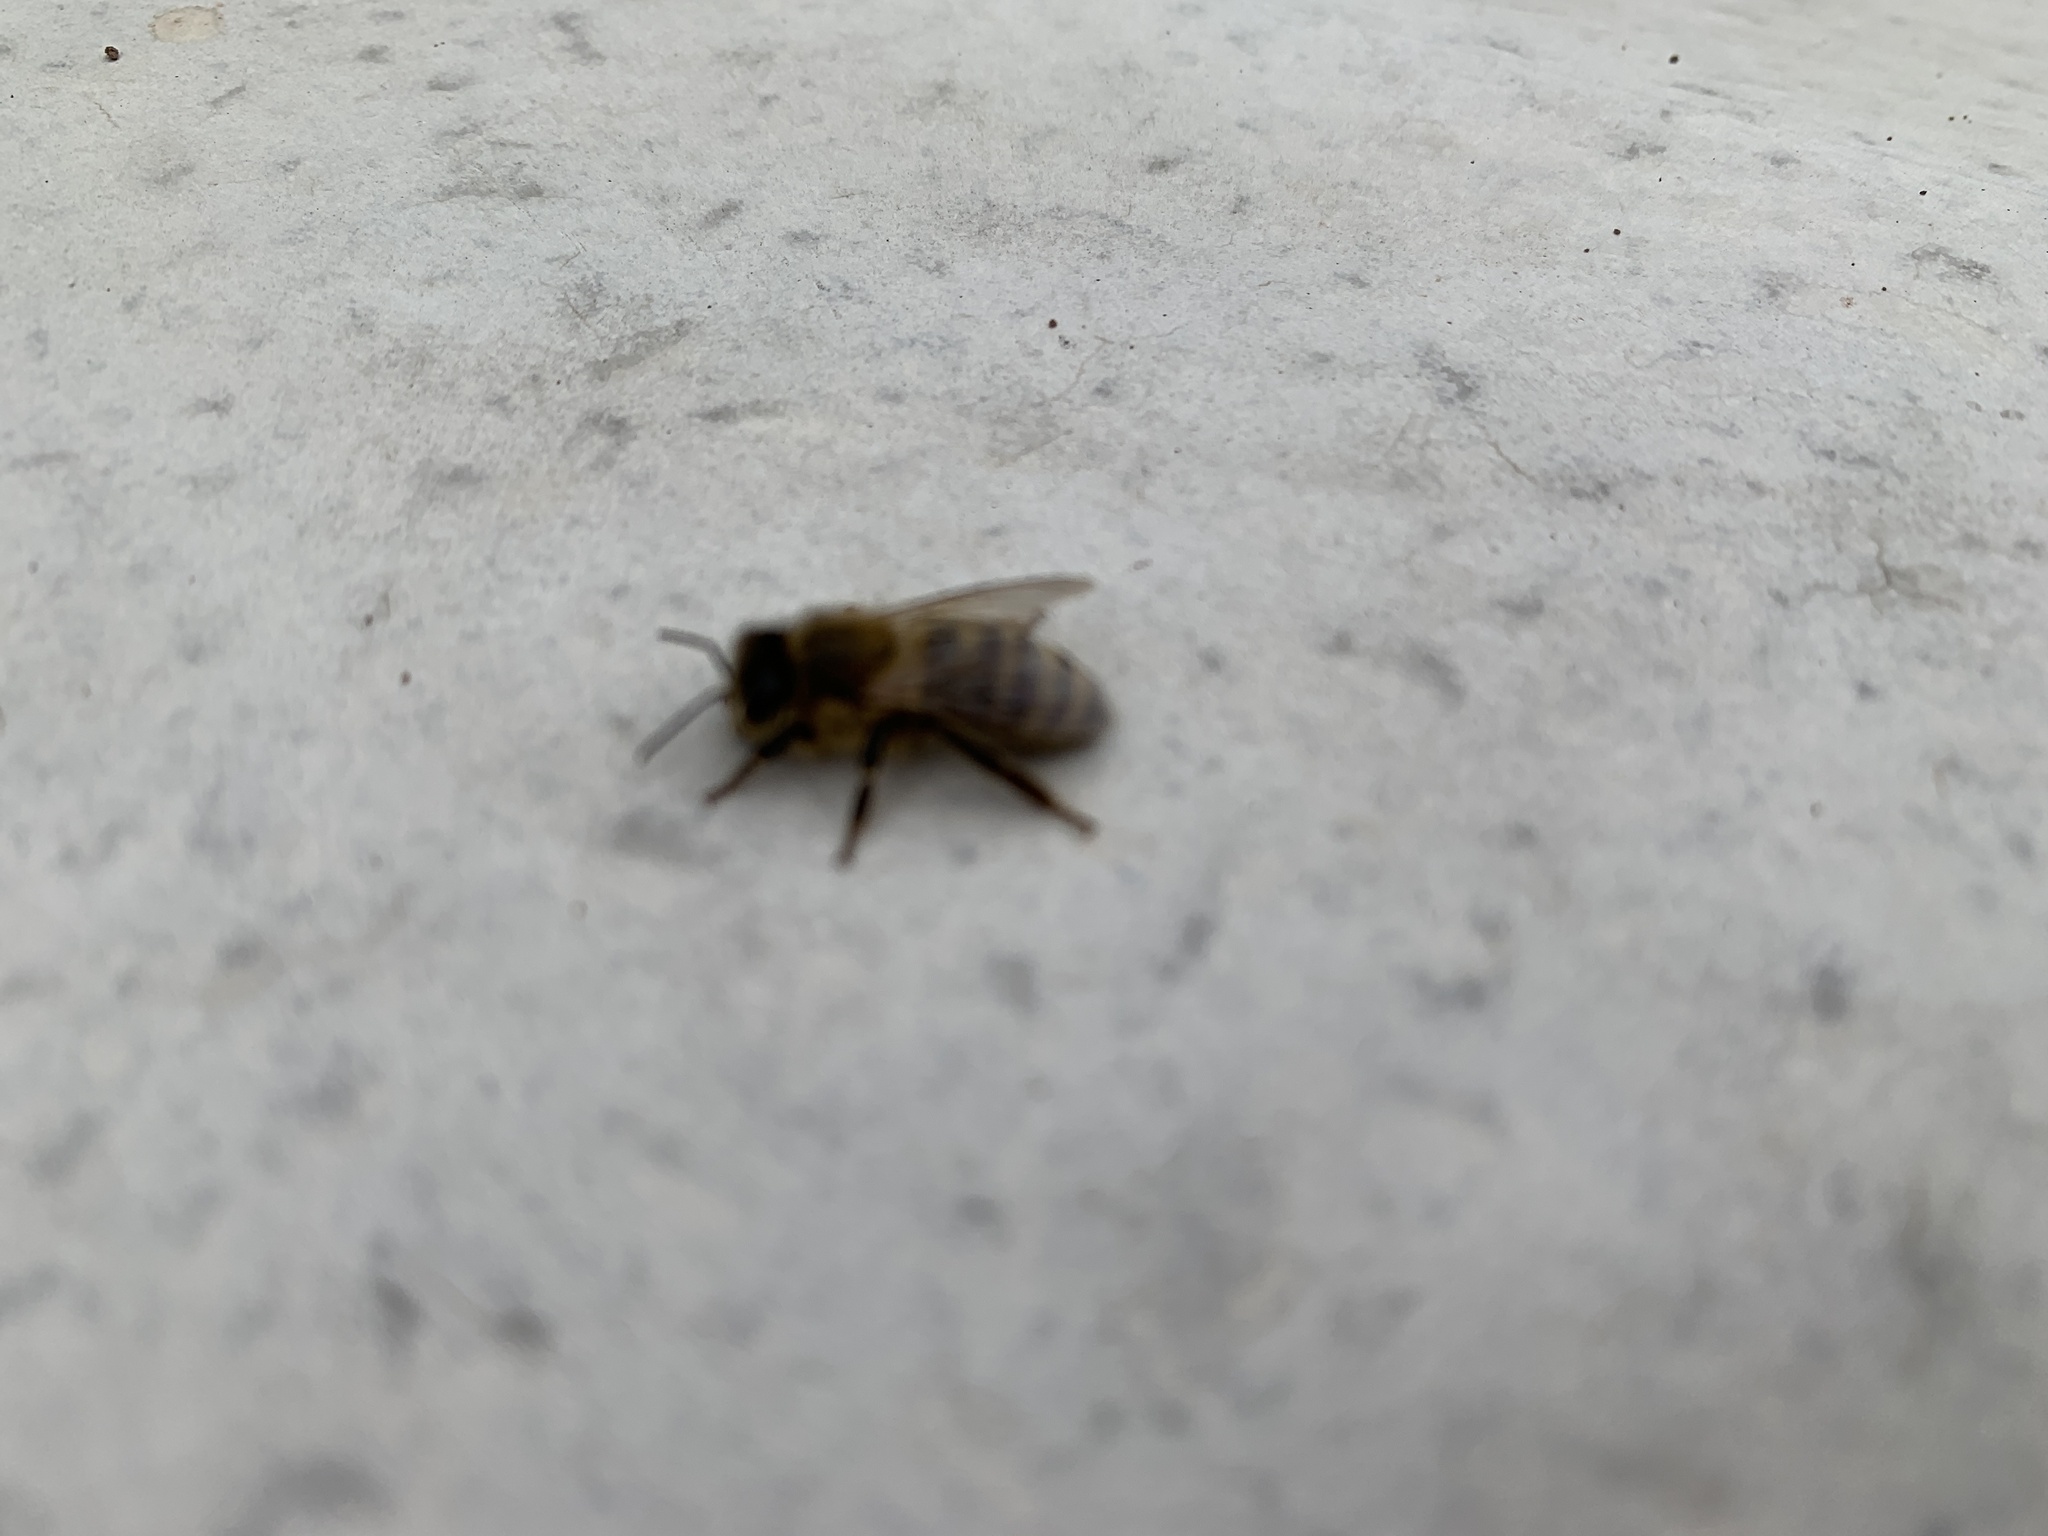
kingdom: Animalia
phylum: Arthropoda
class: Insecta
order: Hymenoptera
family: Apidae
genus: Apis
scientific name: Apis mellifera
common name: Honey bee
